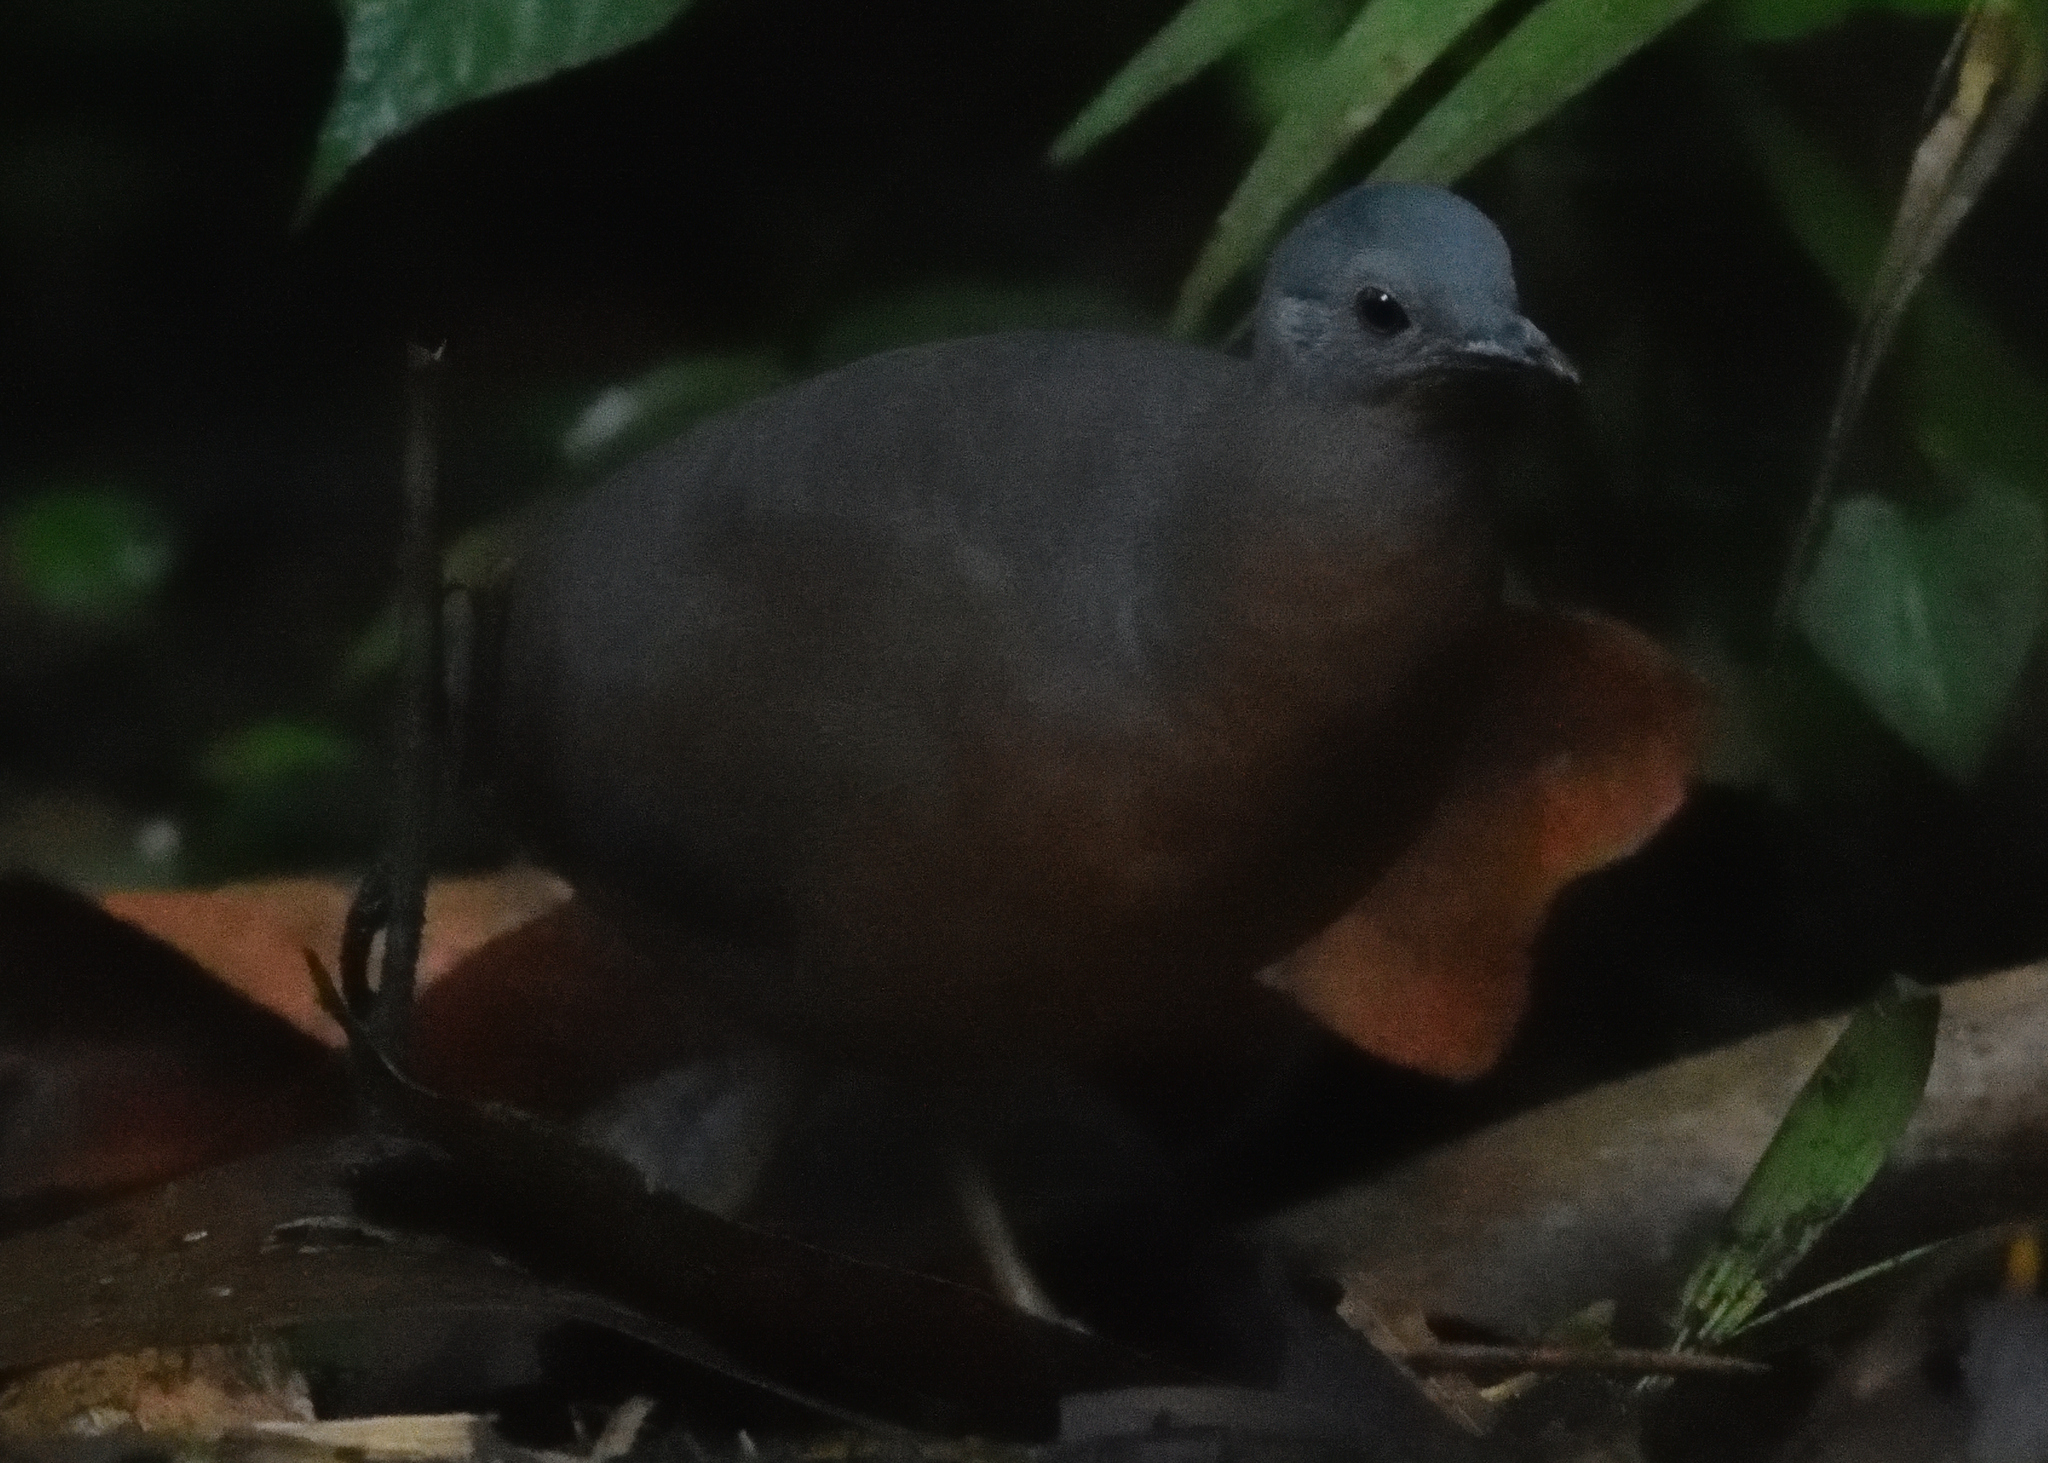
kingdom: Animalia
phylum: Chordata
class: Aves
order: Tinamiformes
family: Tinamidae
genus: Crypturellus
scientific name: Crypturellus soui
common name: Little tinamou
